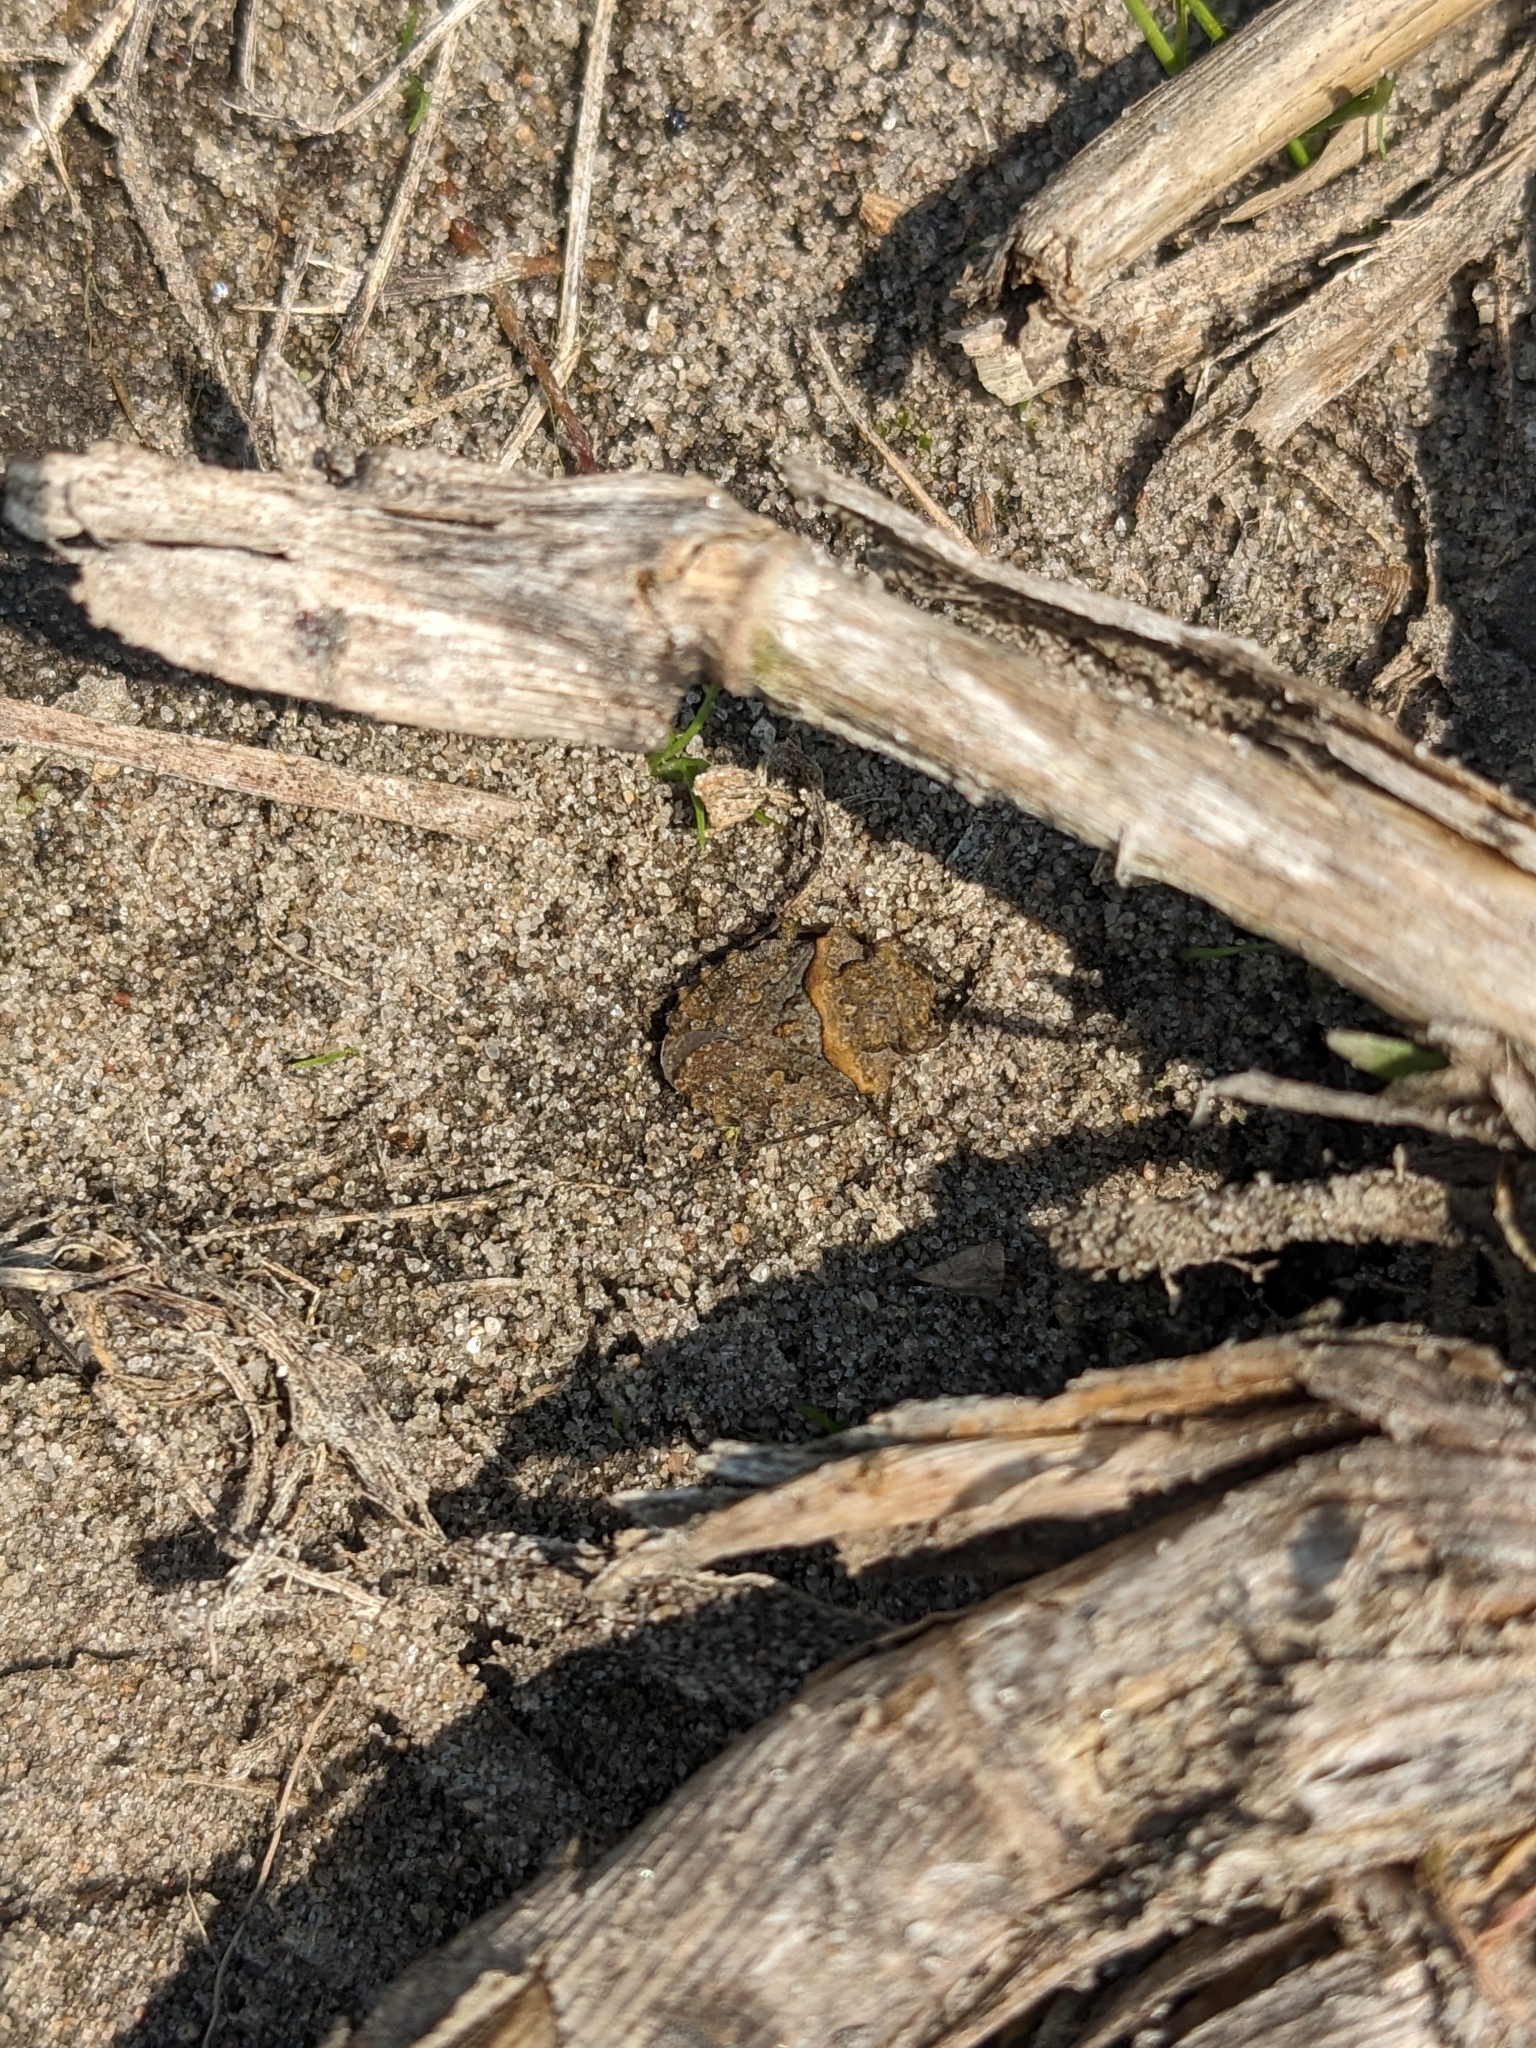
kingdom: Animalia
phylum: Arthropoda
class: Insecta
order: Hemiptera
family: Gelastocoridae
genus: Gelastocoris
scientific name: Gelastocoris oculatus
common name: Toad bug
